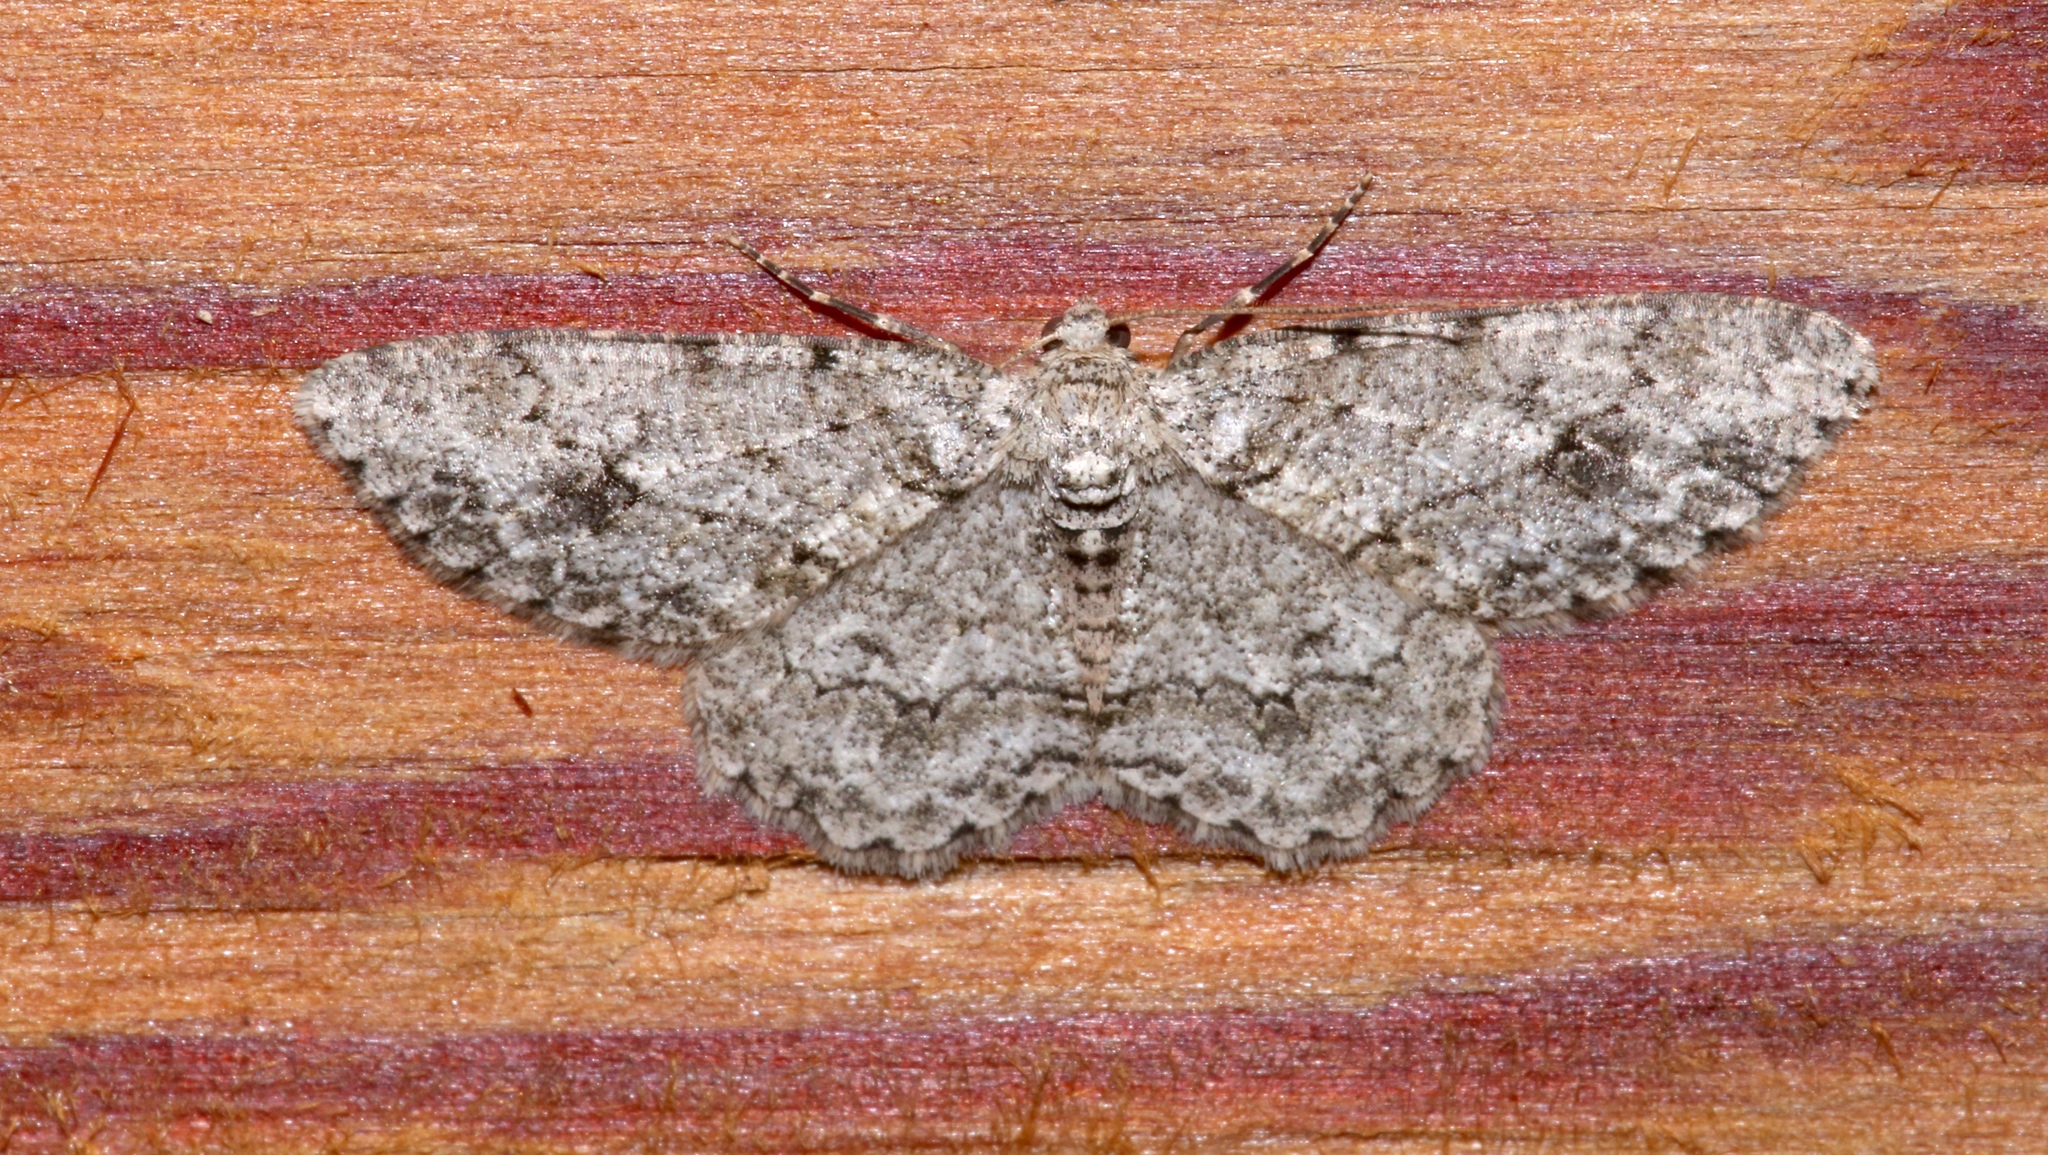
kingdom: Animalia
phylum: Arthropoda
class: Insecta
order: Lepidoptera
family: Geometridae
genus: Ectropis
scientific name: Ectropis crepuscularia
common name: Engrailed
